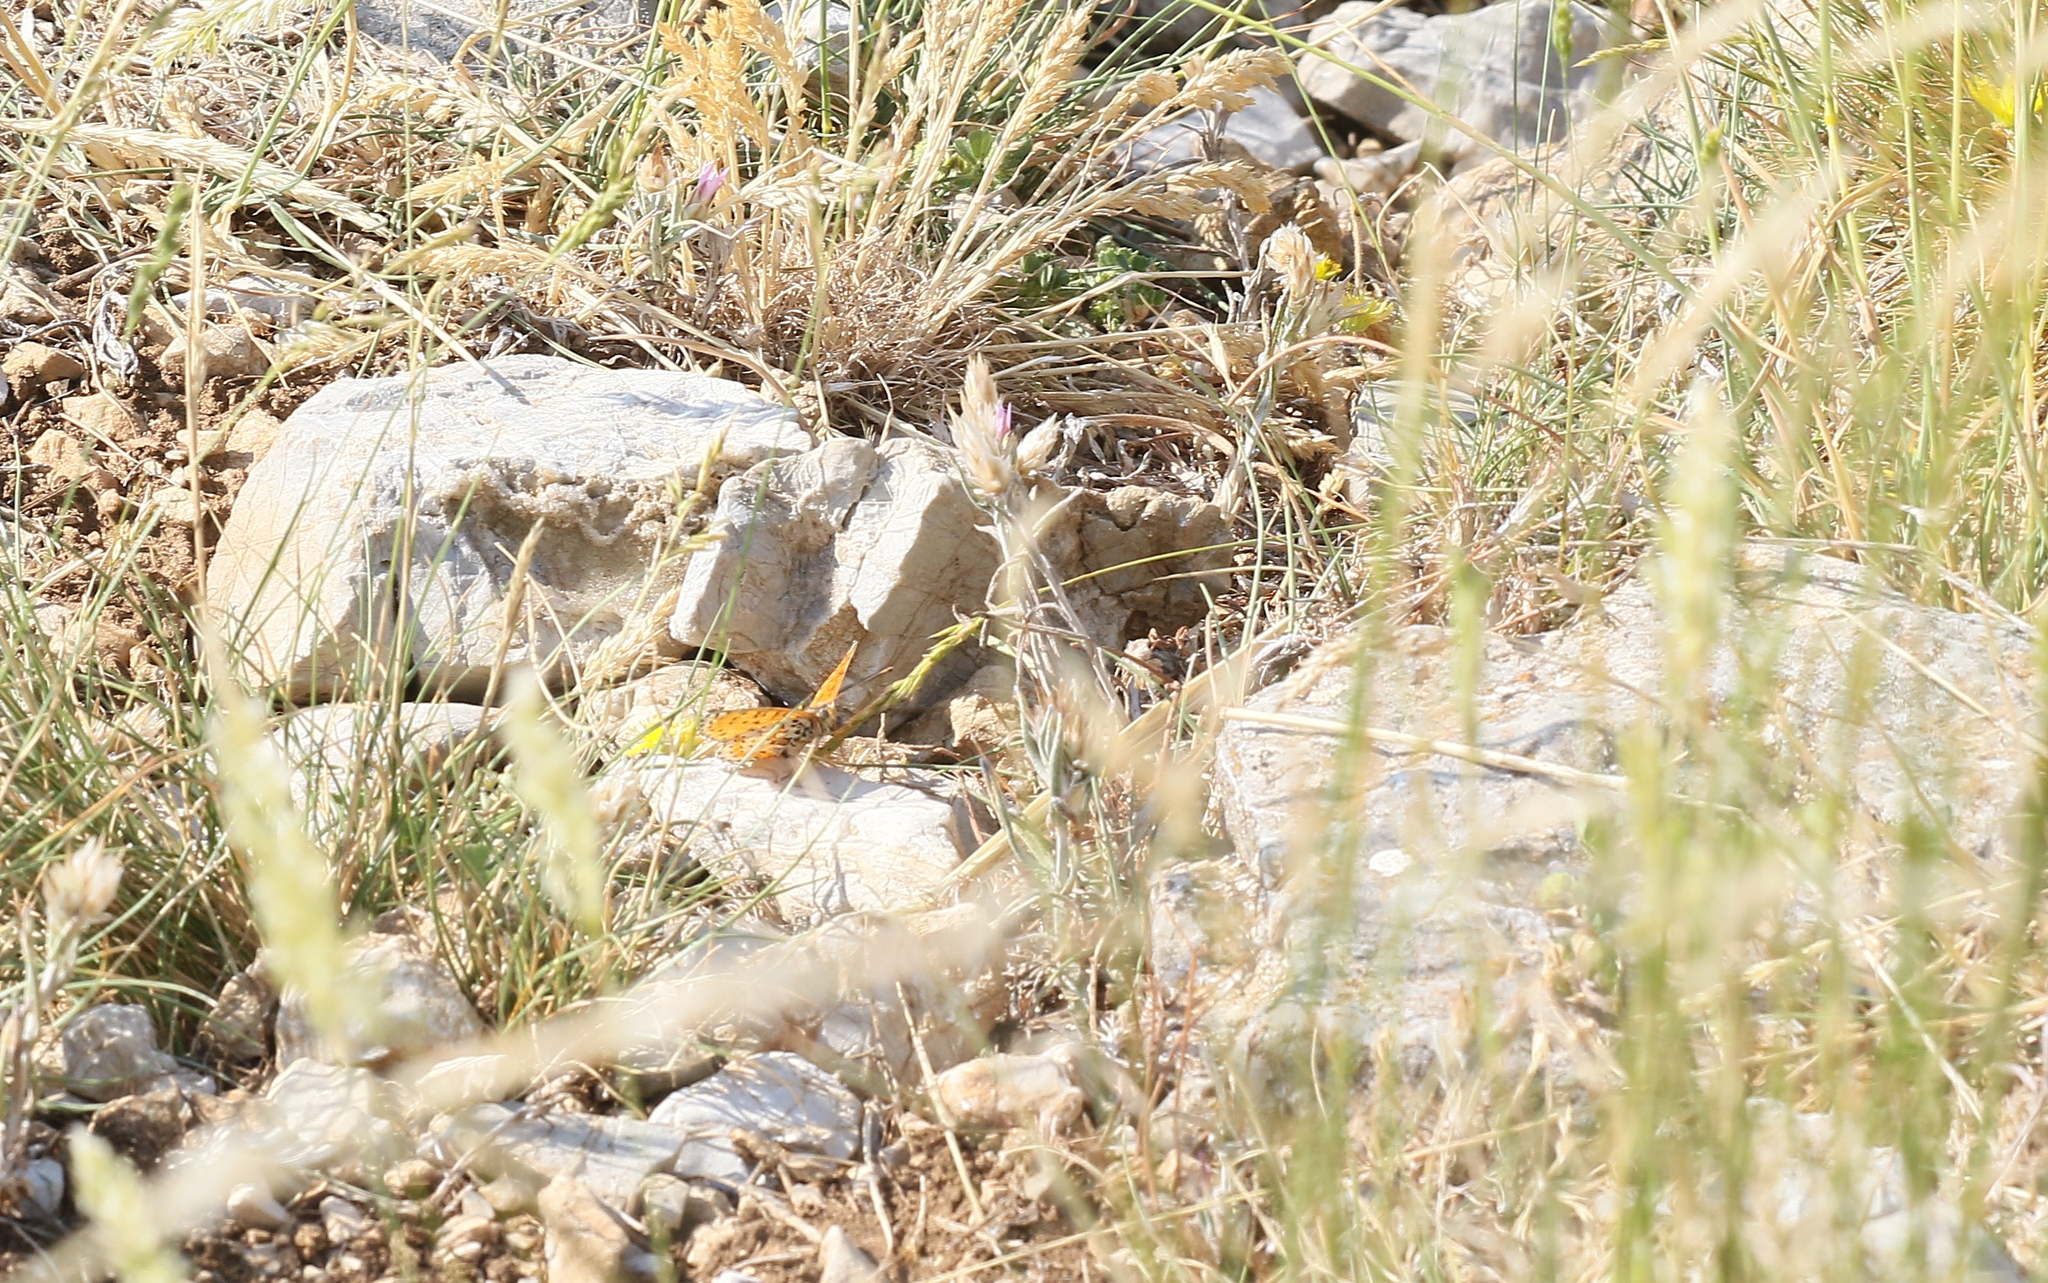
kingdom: Animalia
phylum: Arthropoda
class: Insecta
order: Lepidoptera
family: Nymphalidae
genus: Melitaea
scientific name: Melitaea didyma
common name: Spotted fritillary
